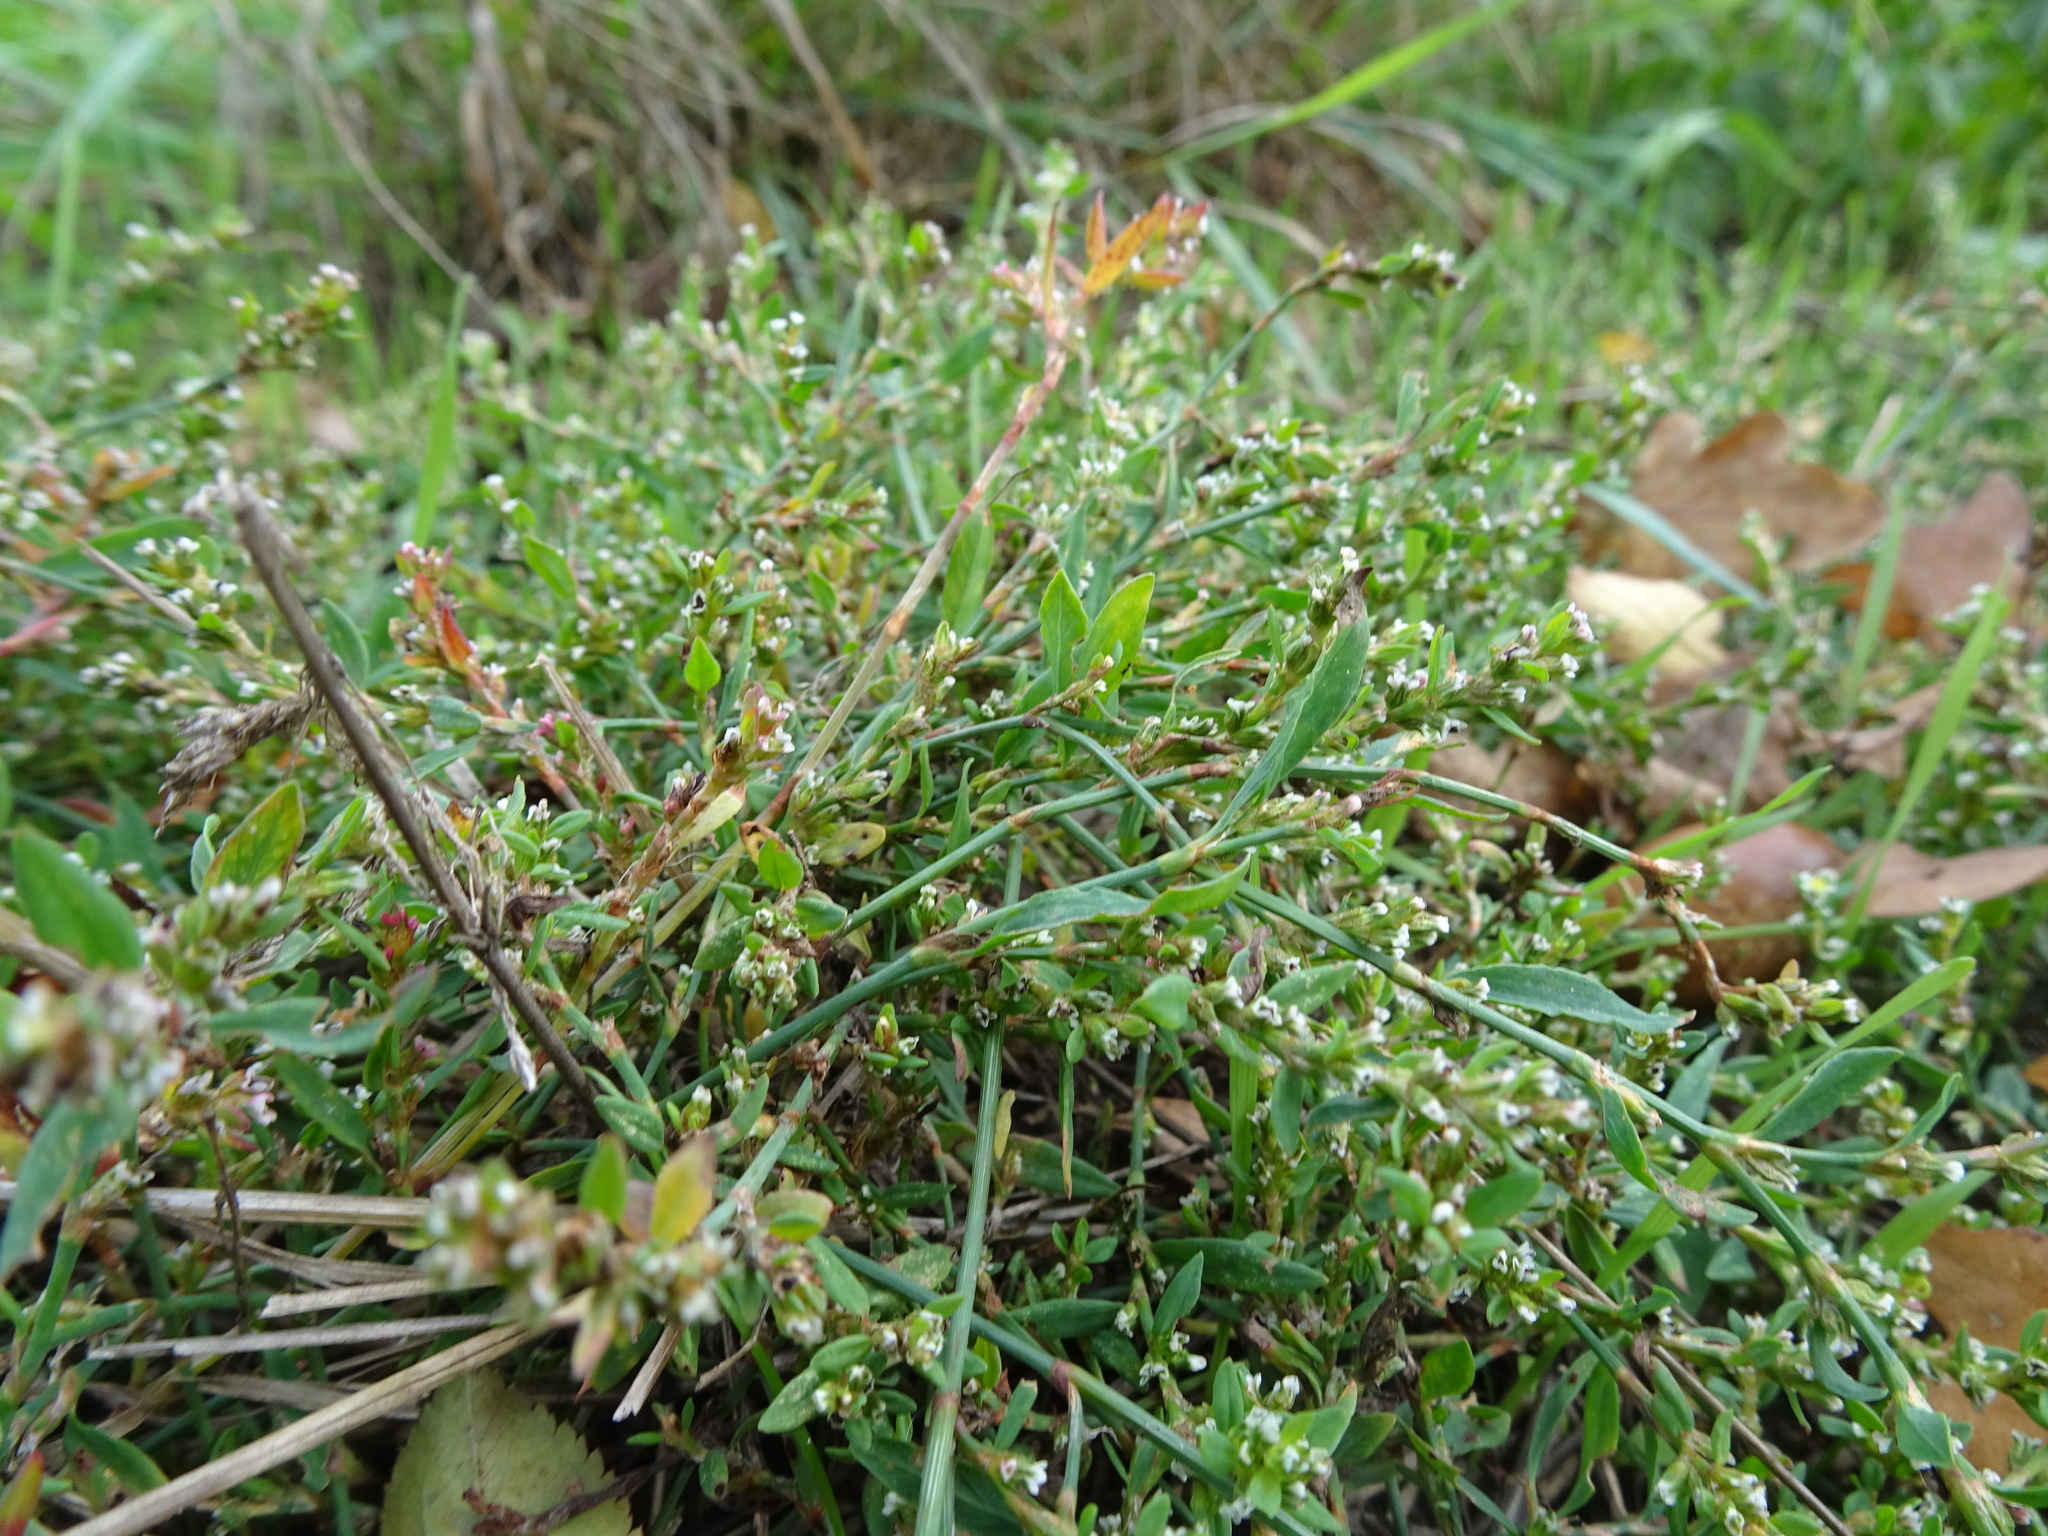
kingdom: Plantae
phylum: Tracheophyta
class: Magnoliopsida
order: Caryophyllales
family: Polygonaceae
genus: Polygonum
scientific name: Polygonum aviculare
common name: Prostrate knotweed
